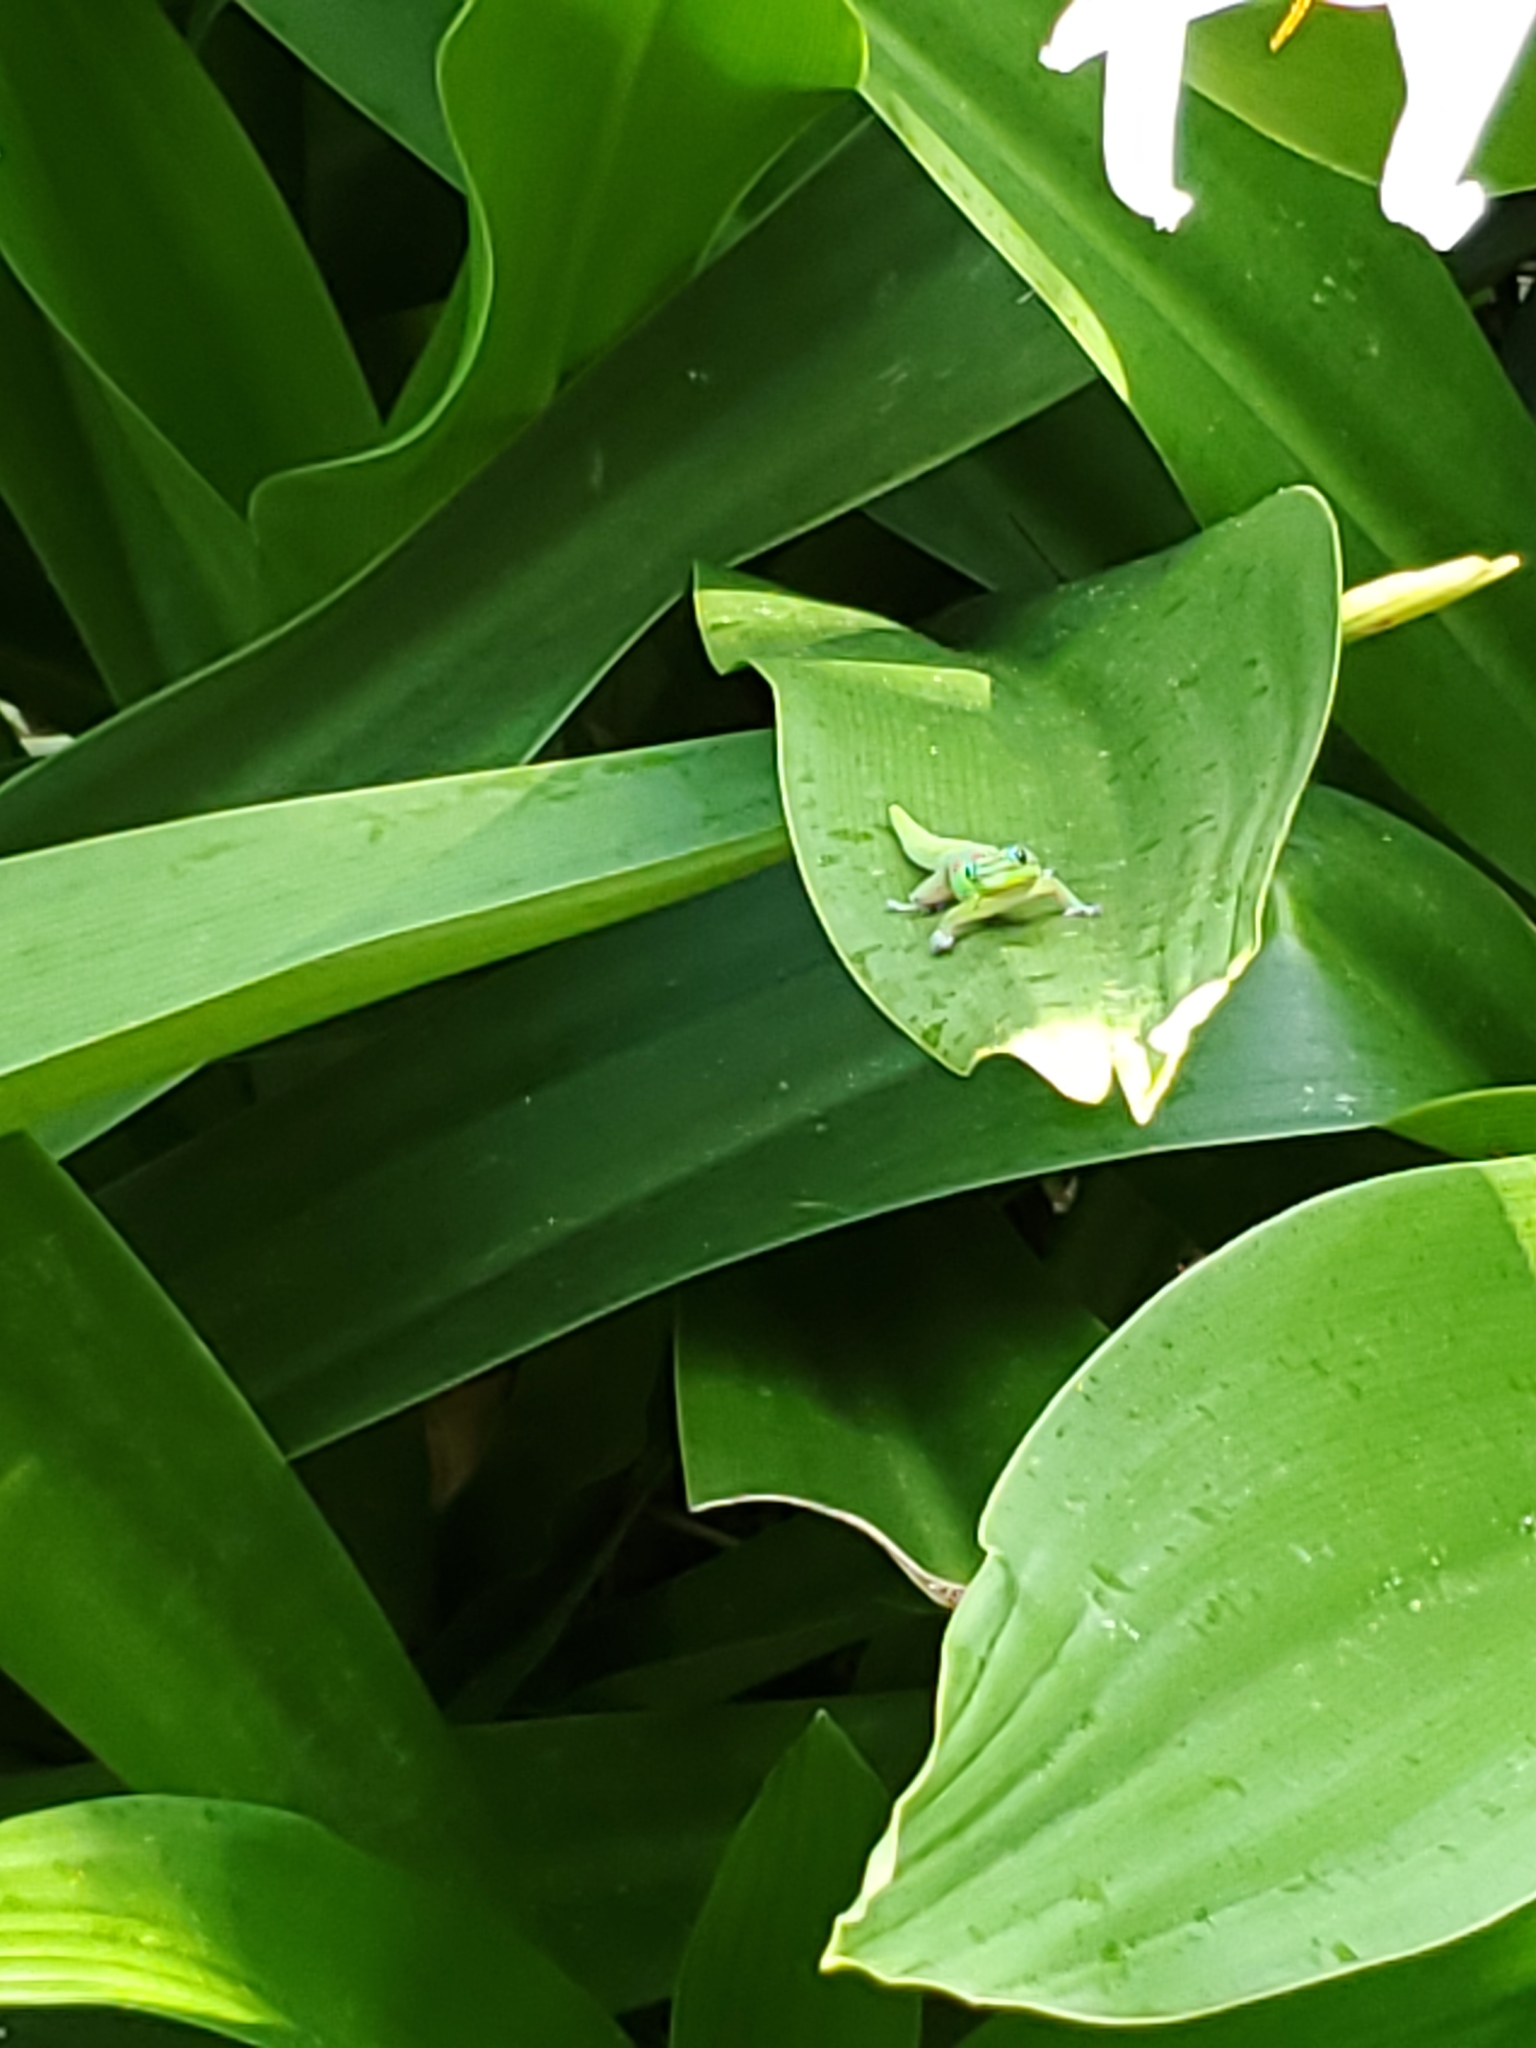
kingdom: Animalia
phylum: Chordata
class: Squamata
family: Gekkonidae
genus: Phelsuma
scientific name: Phelsuma laticauda
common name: Gold dust day gecko
